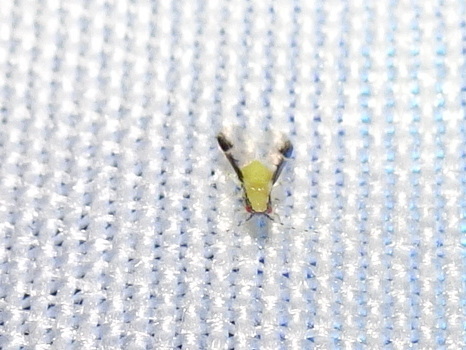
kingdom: Animalia
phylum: Arthropoda
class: Insecta
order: Hemiptera
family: Aphididae
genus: Monellia
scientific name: Monellia caryella
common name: Blackmargined aphid
